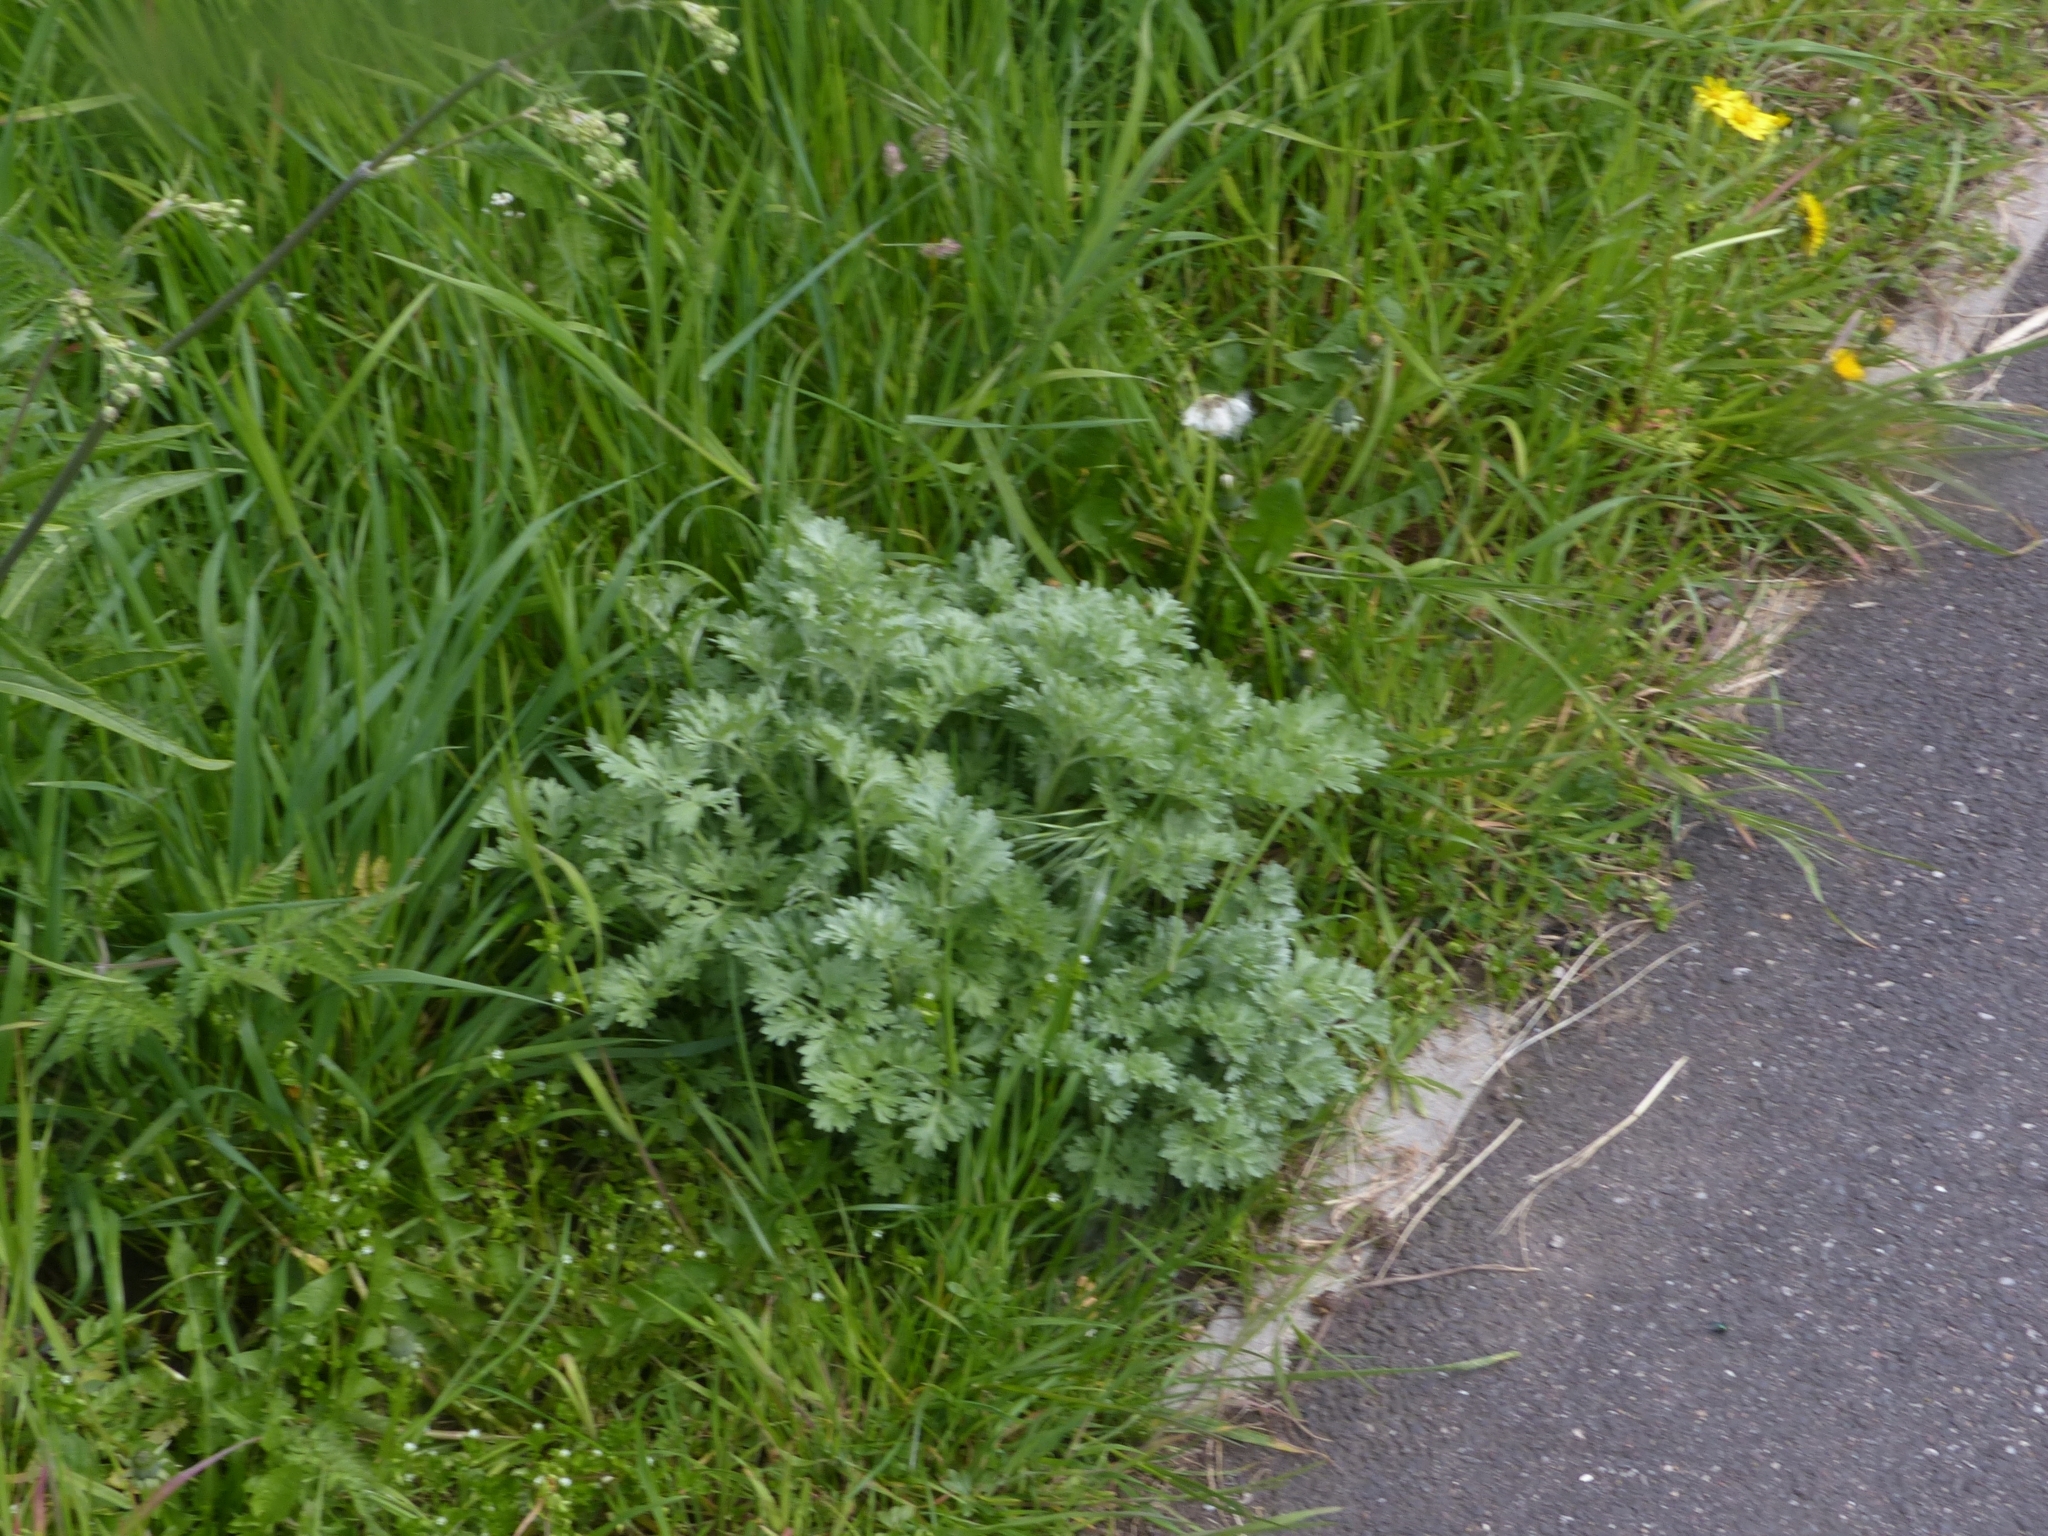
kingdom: Plantae
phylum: Tracheophyta
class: Magnoliopsida
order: Asterales
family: Asteraceae
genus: Artemisia
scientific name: Artemisia absinthium
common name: Wormwood
